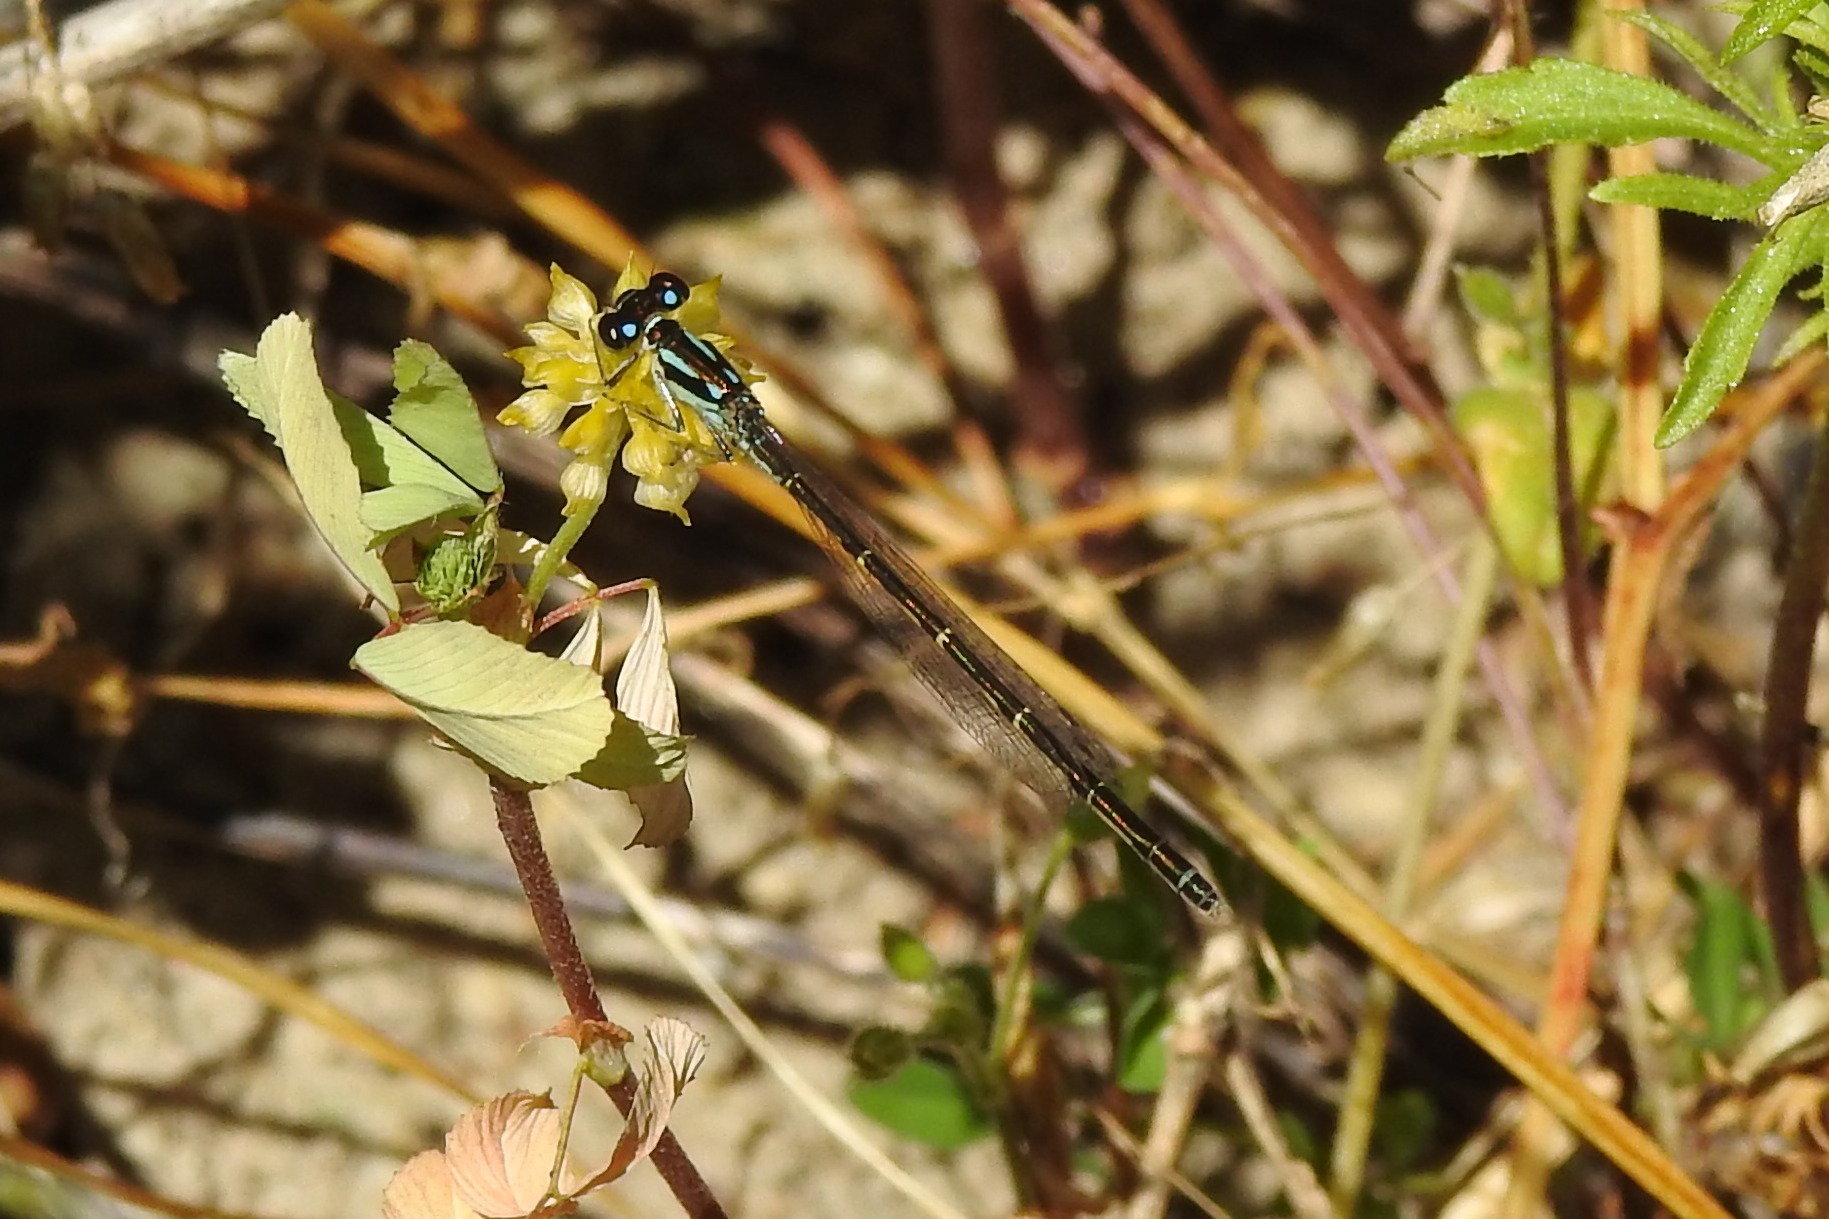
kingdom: Animalia
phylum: Arthropoda
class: Insecta
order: Odonata
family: Coenagrionidae
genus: Ischnura
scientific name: Ischnura posita
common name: Fragile forktail
